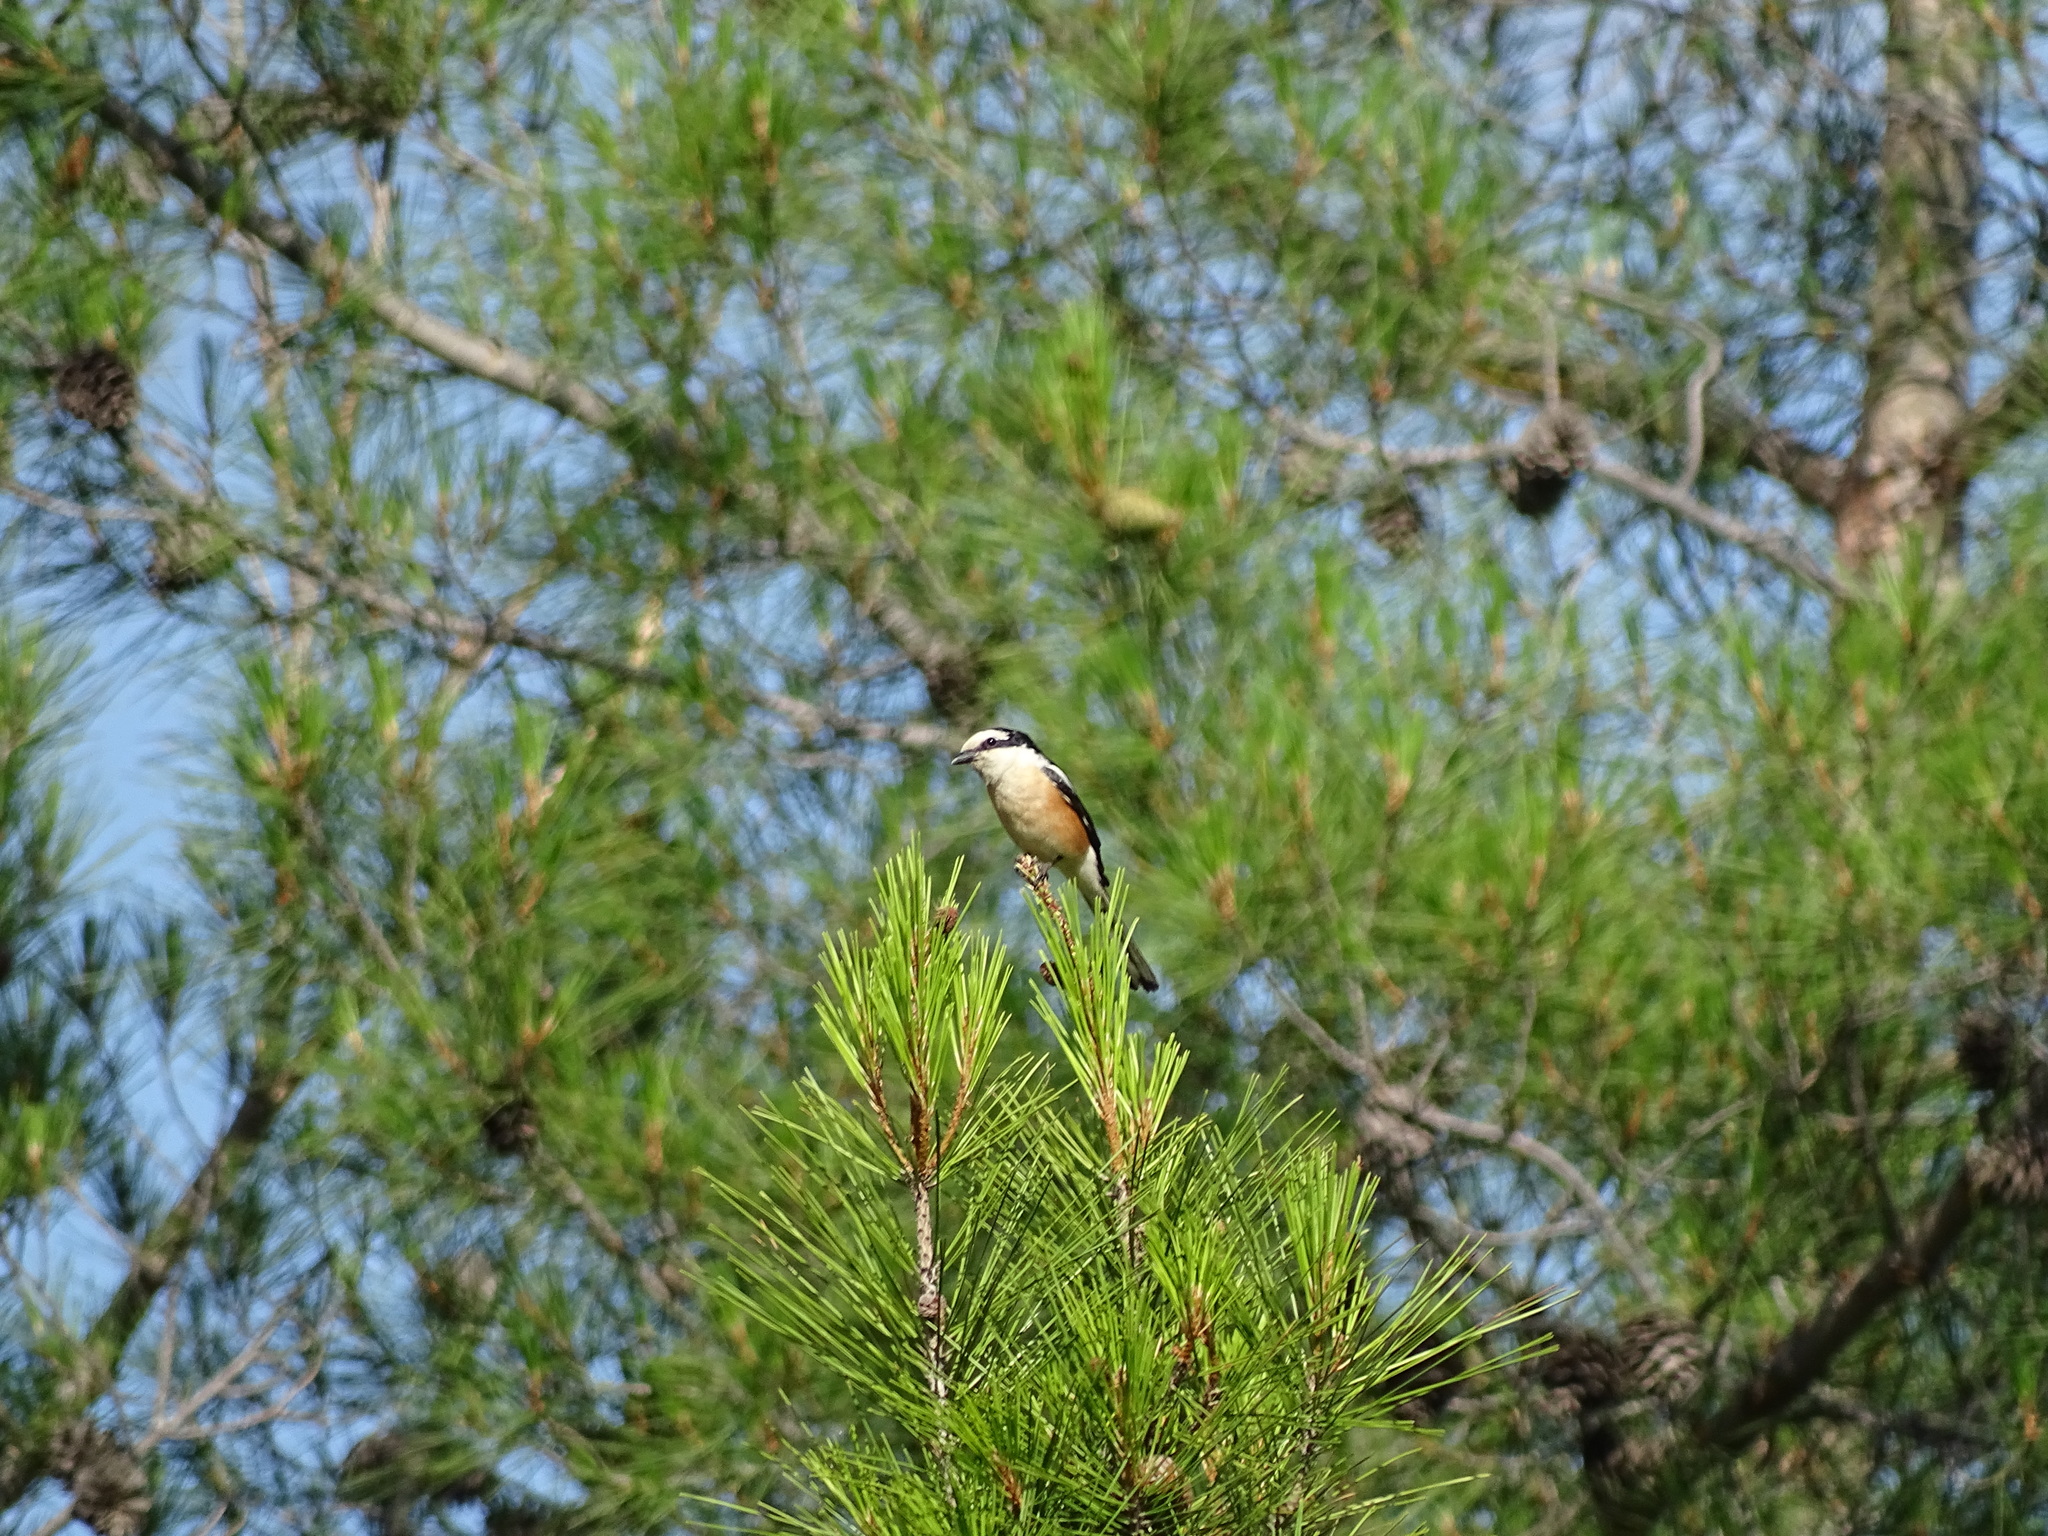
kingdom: Animalia
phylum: Chordata
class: Aves
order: Passeriformes
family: Laniidae
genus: Lanius
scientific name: Lanius nubicus
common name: Masked shrike
